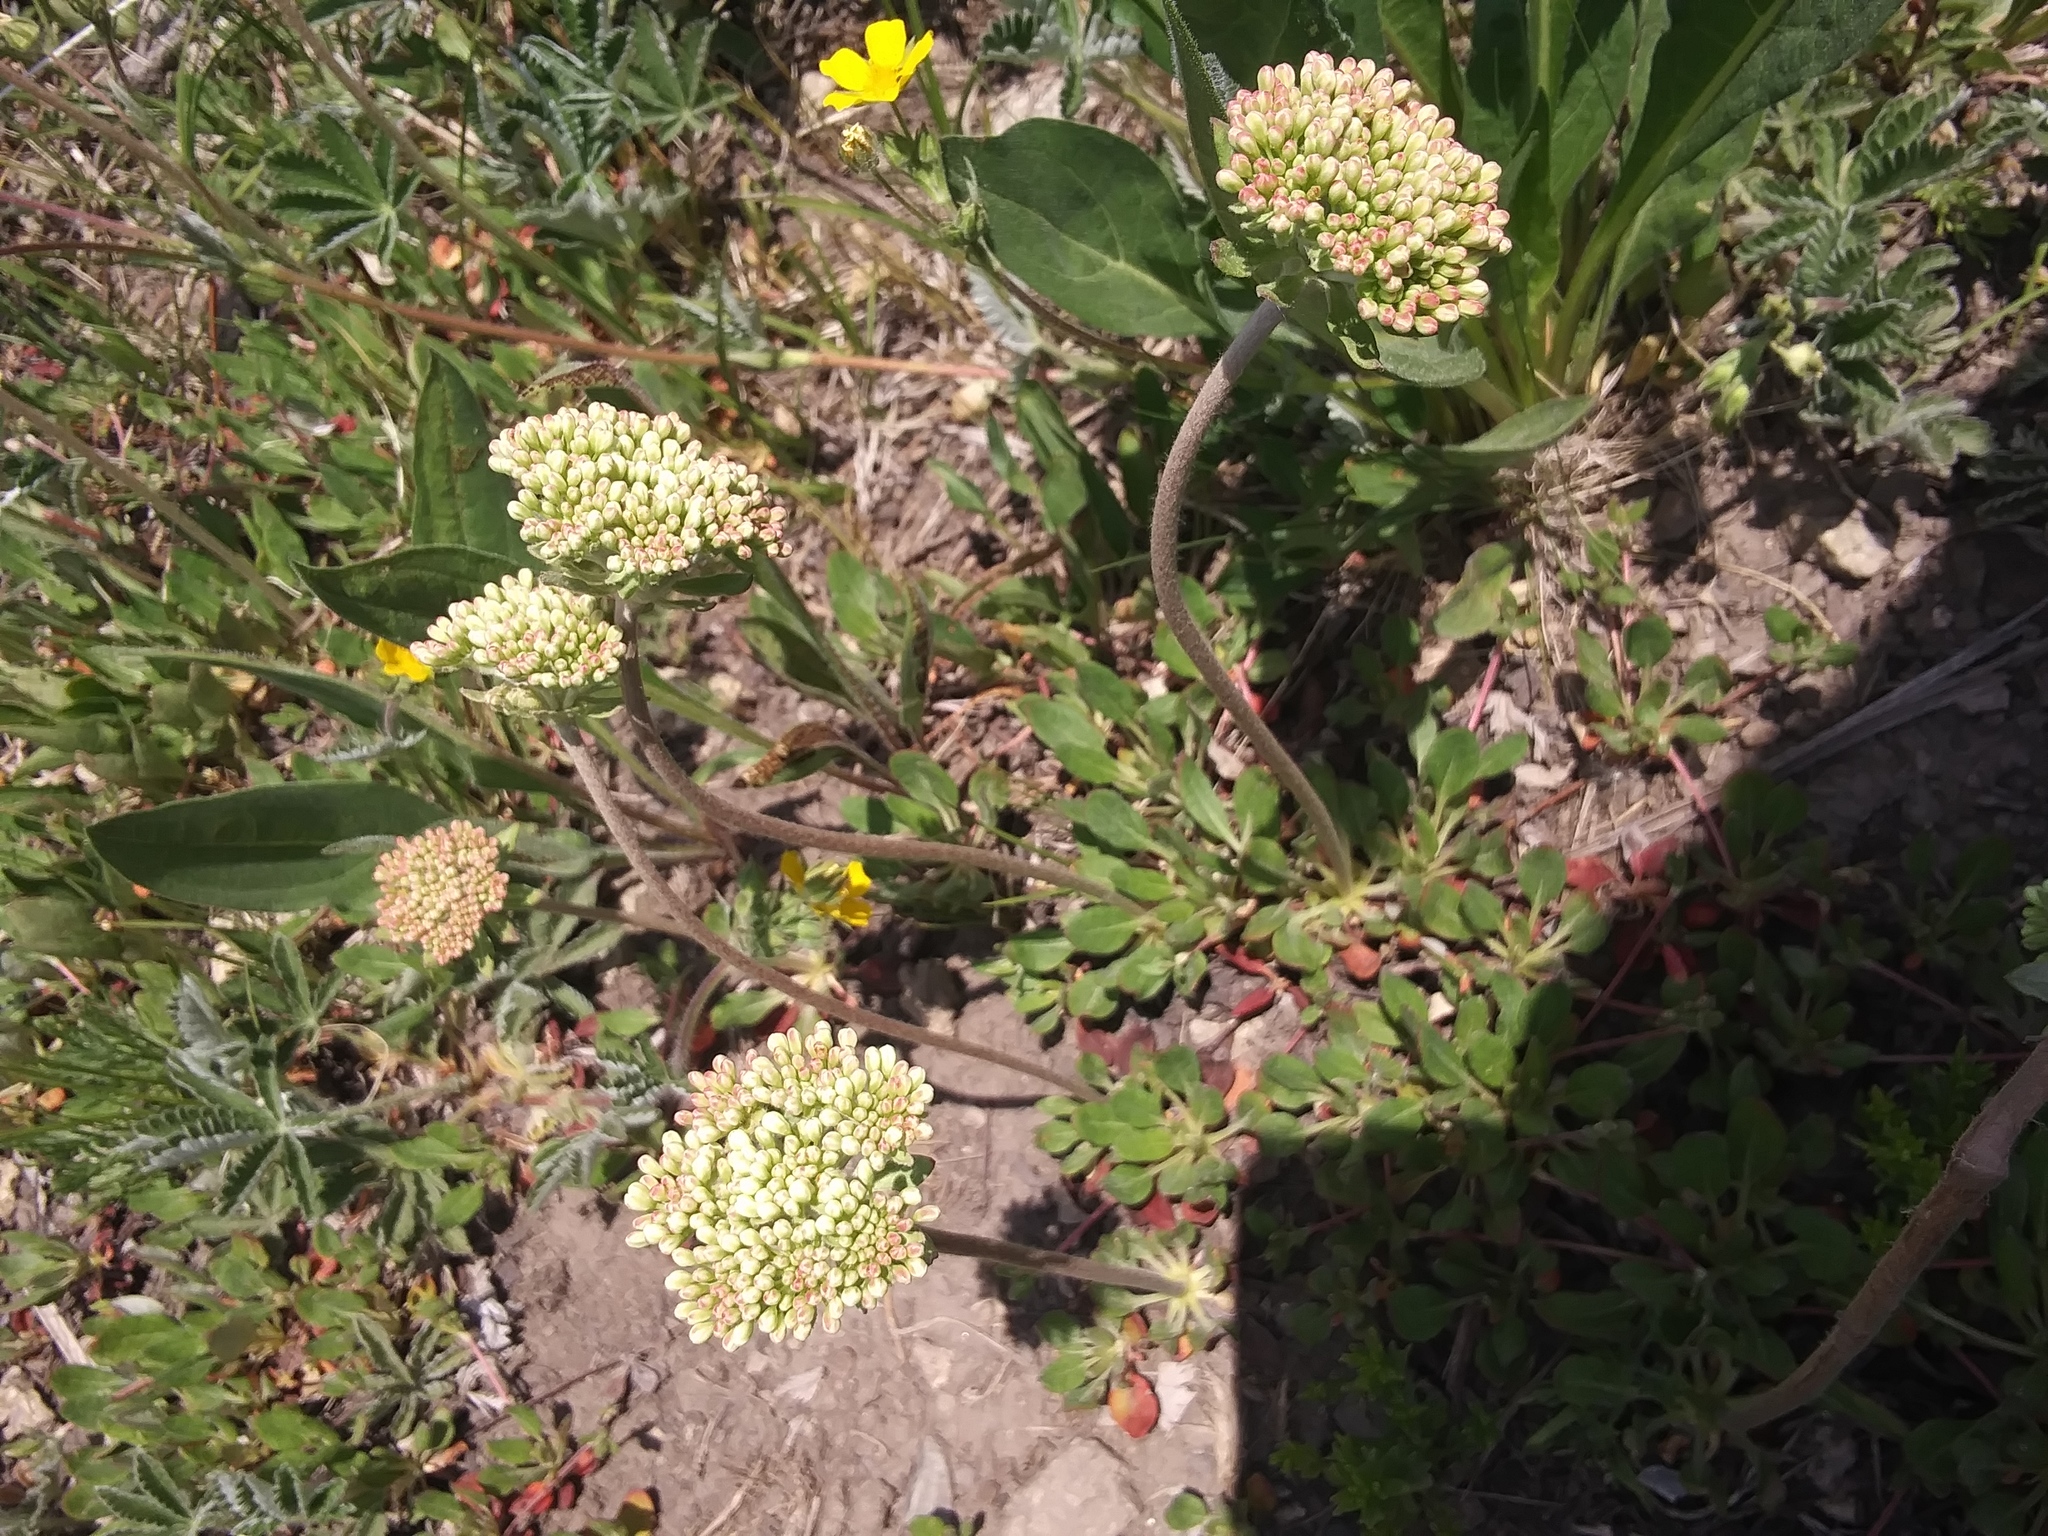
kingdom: Plantae
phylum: Tracheophyta
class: Magnoliopsida
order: Caryophyllales
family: Polygonaceae
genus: Eriogonum
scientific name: Eriogonum umbellatum
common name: Sulfur-buckwheat
